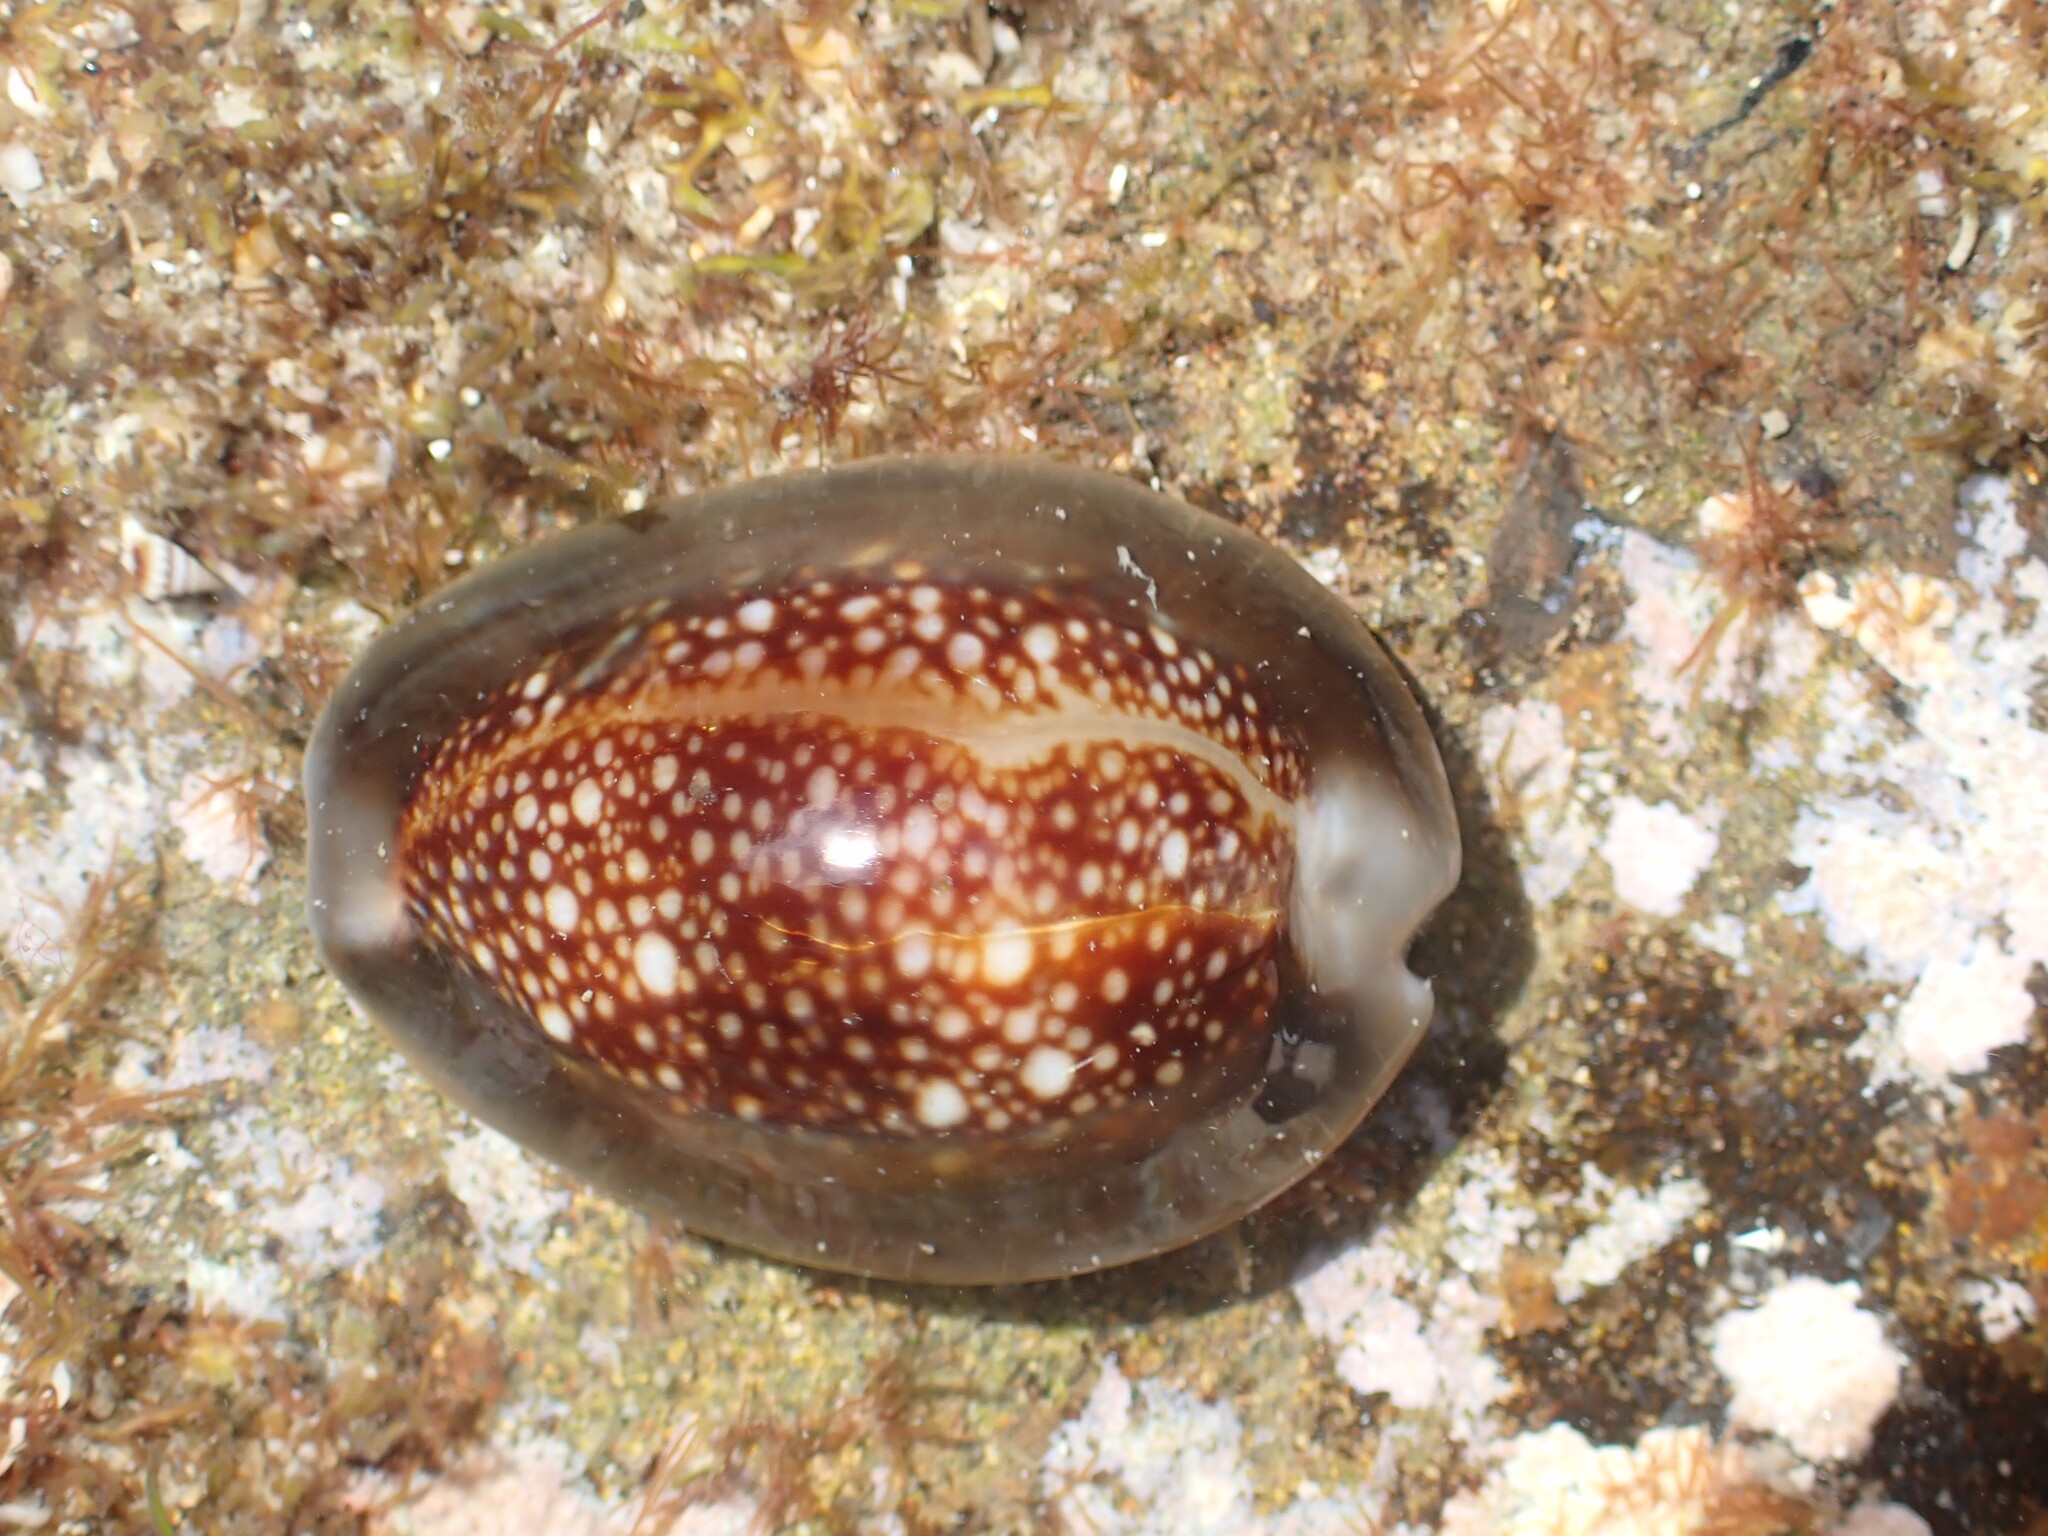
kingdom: Animalia
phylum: Mollusca
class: Gastropoda
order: Littorinimorpha
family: Cypraeidae
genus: Monetaria
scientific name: Monetaria caputserpentis
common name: Serpent's head cowrie
